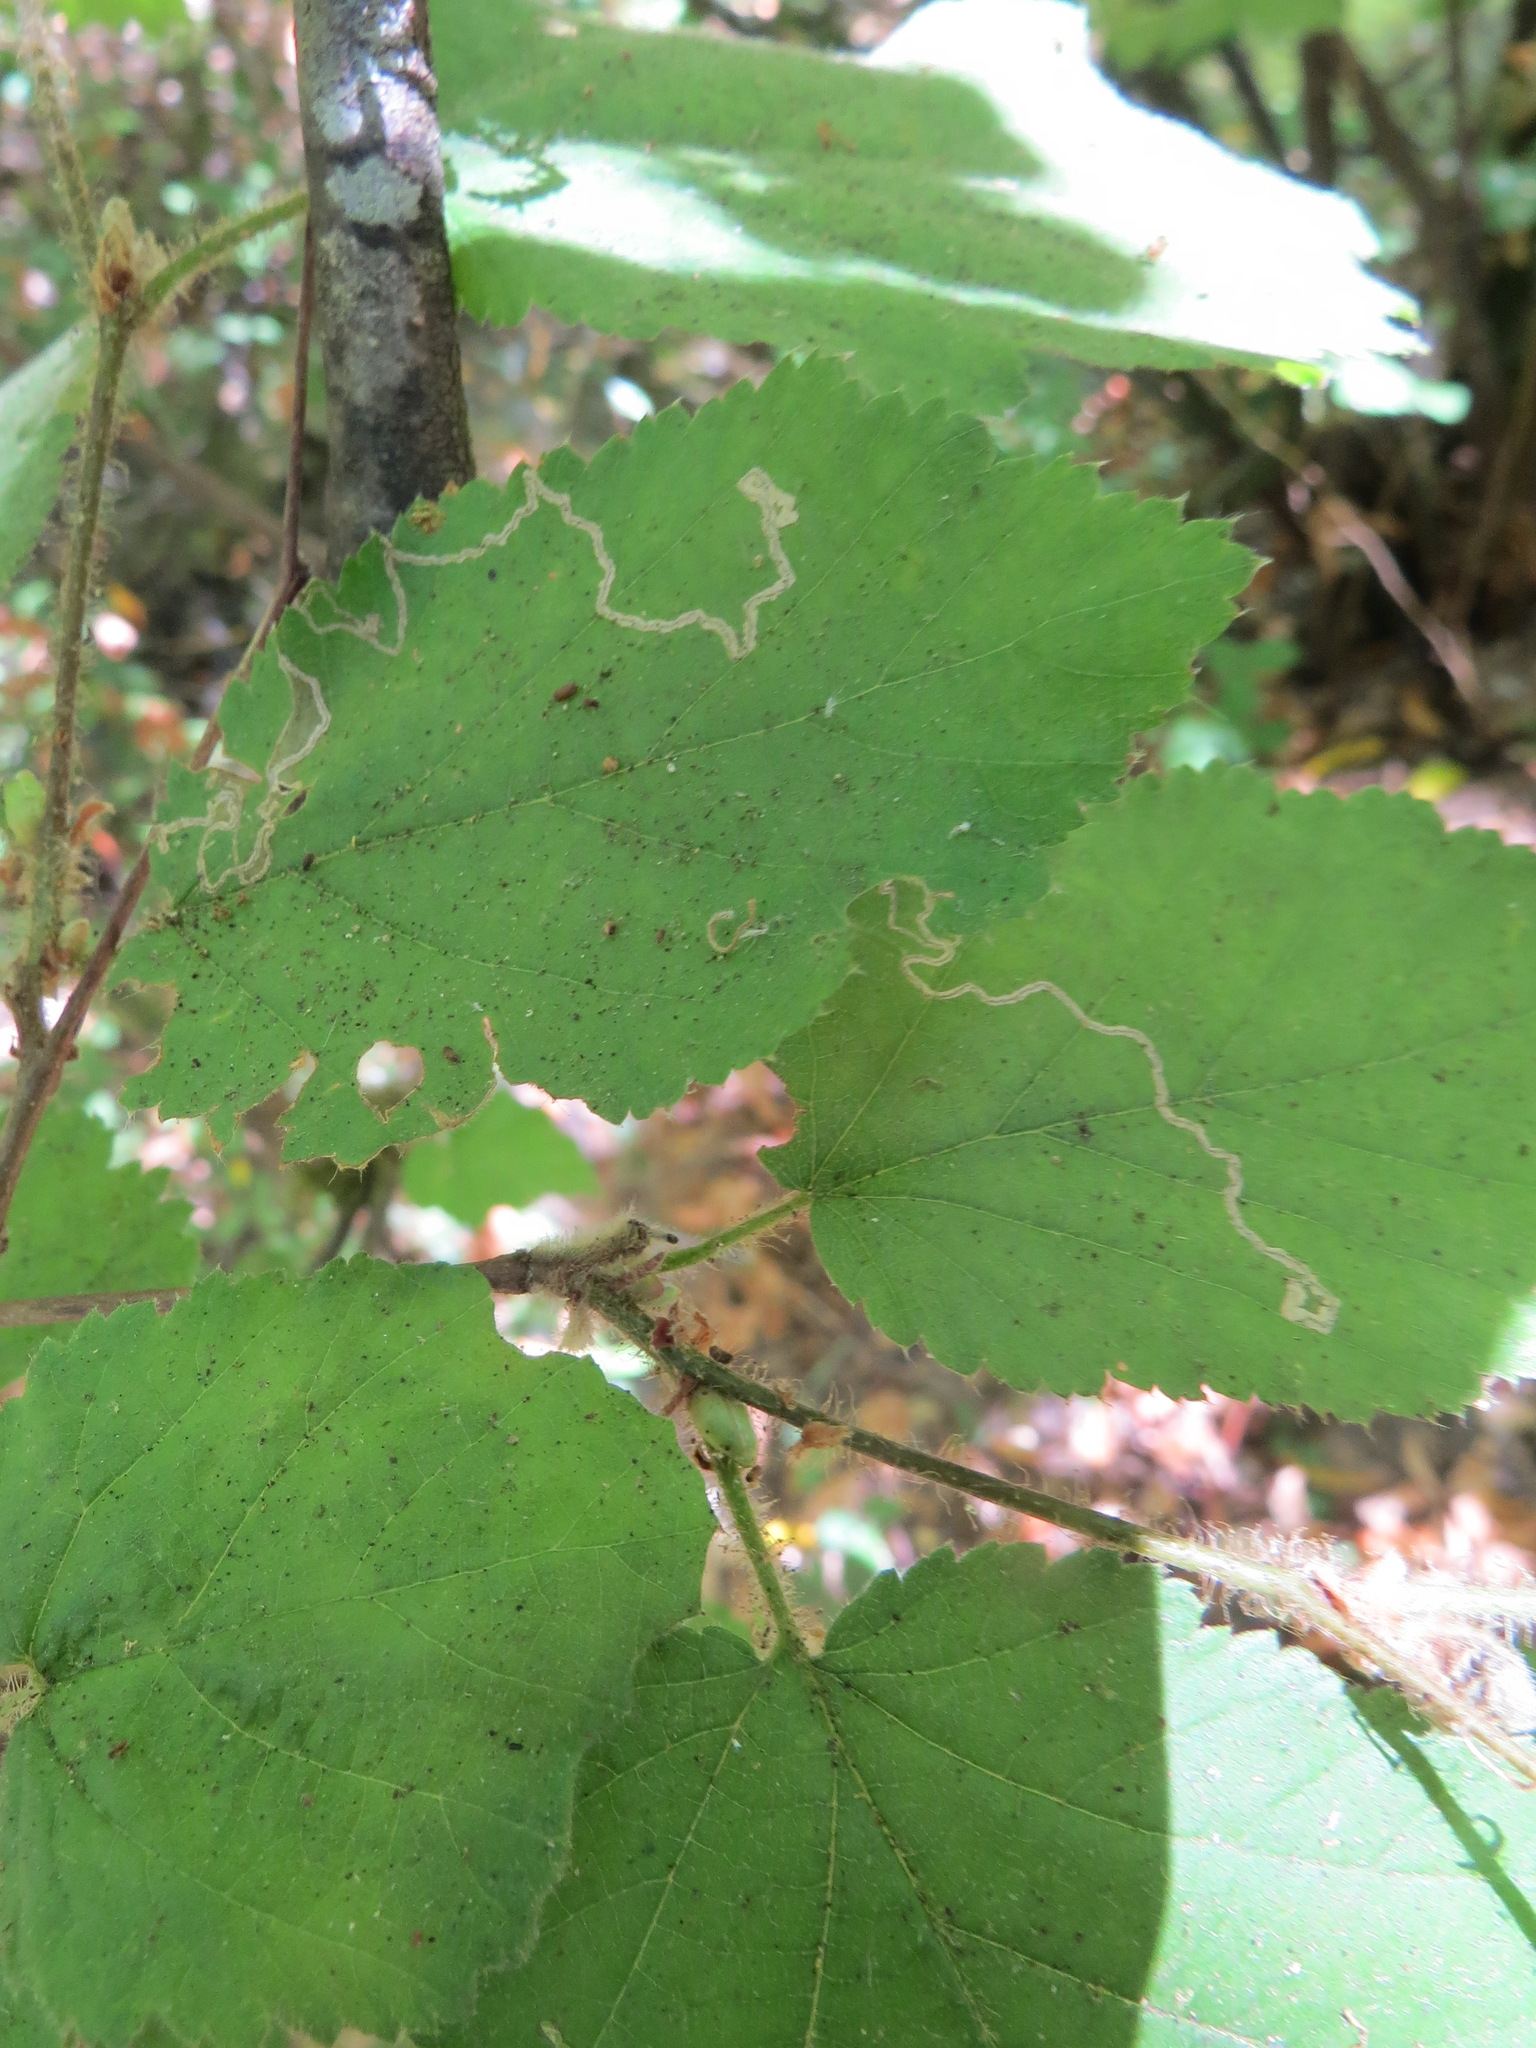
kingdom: Animalia
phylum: Arthropoda
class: Insecta
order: Lepidoptera
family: Nepticulidae
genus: Stigmella
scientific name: Stigmella microtheriella
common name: Nut-tree pigmy
